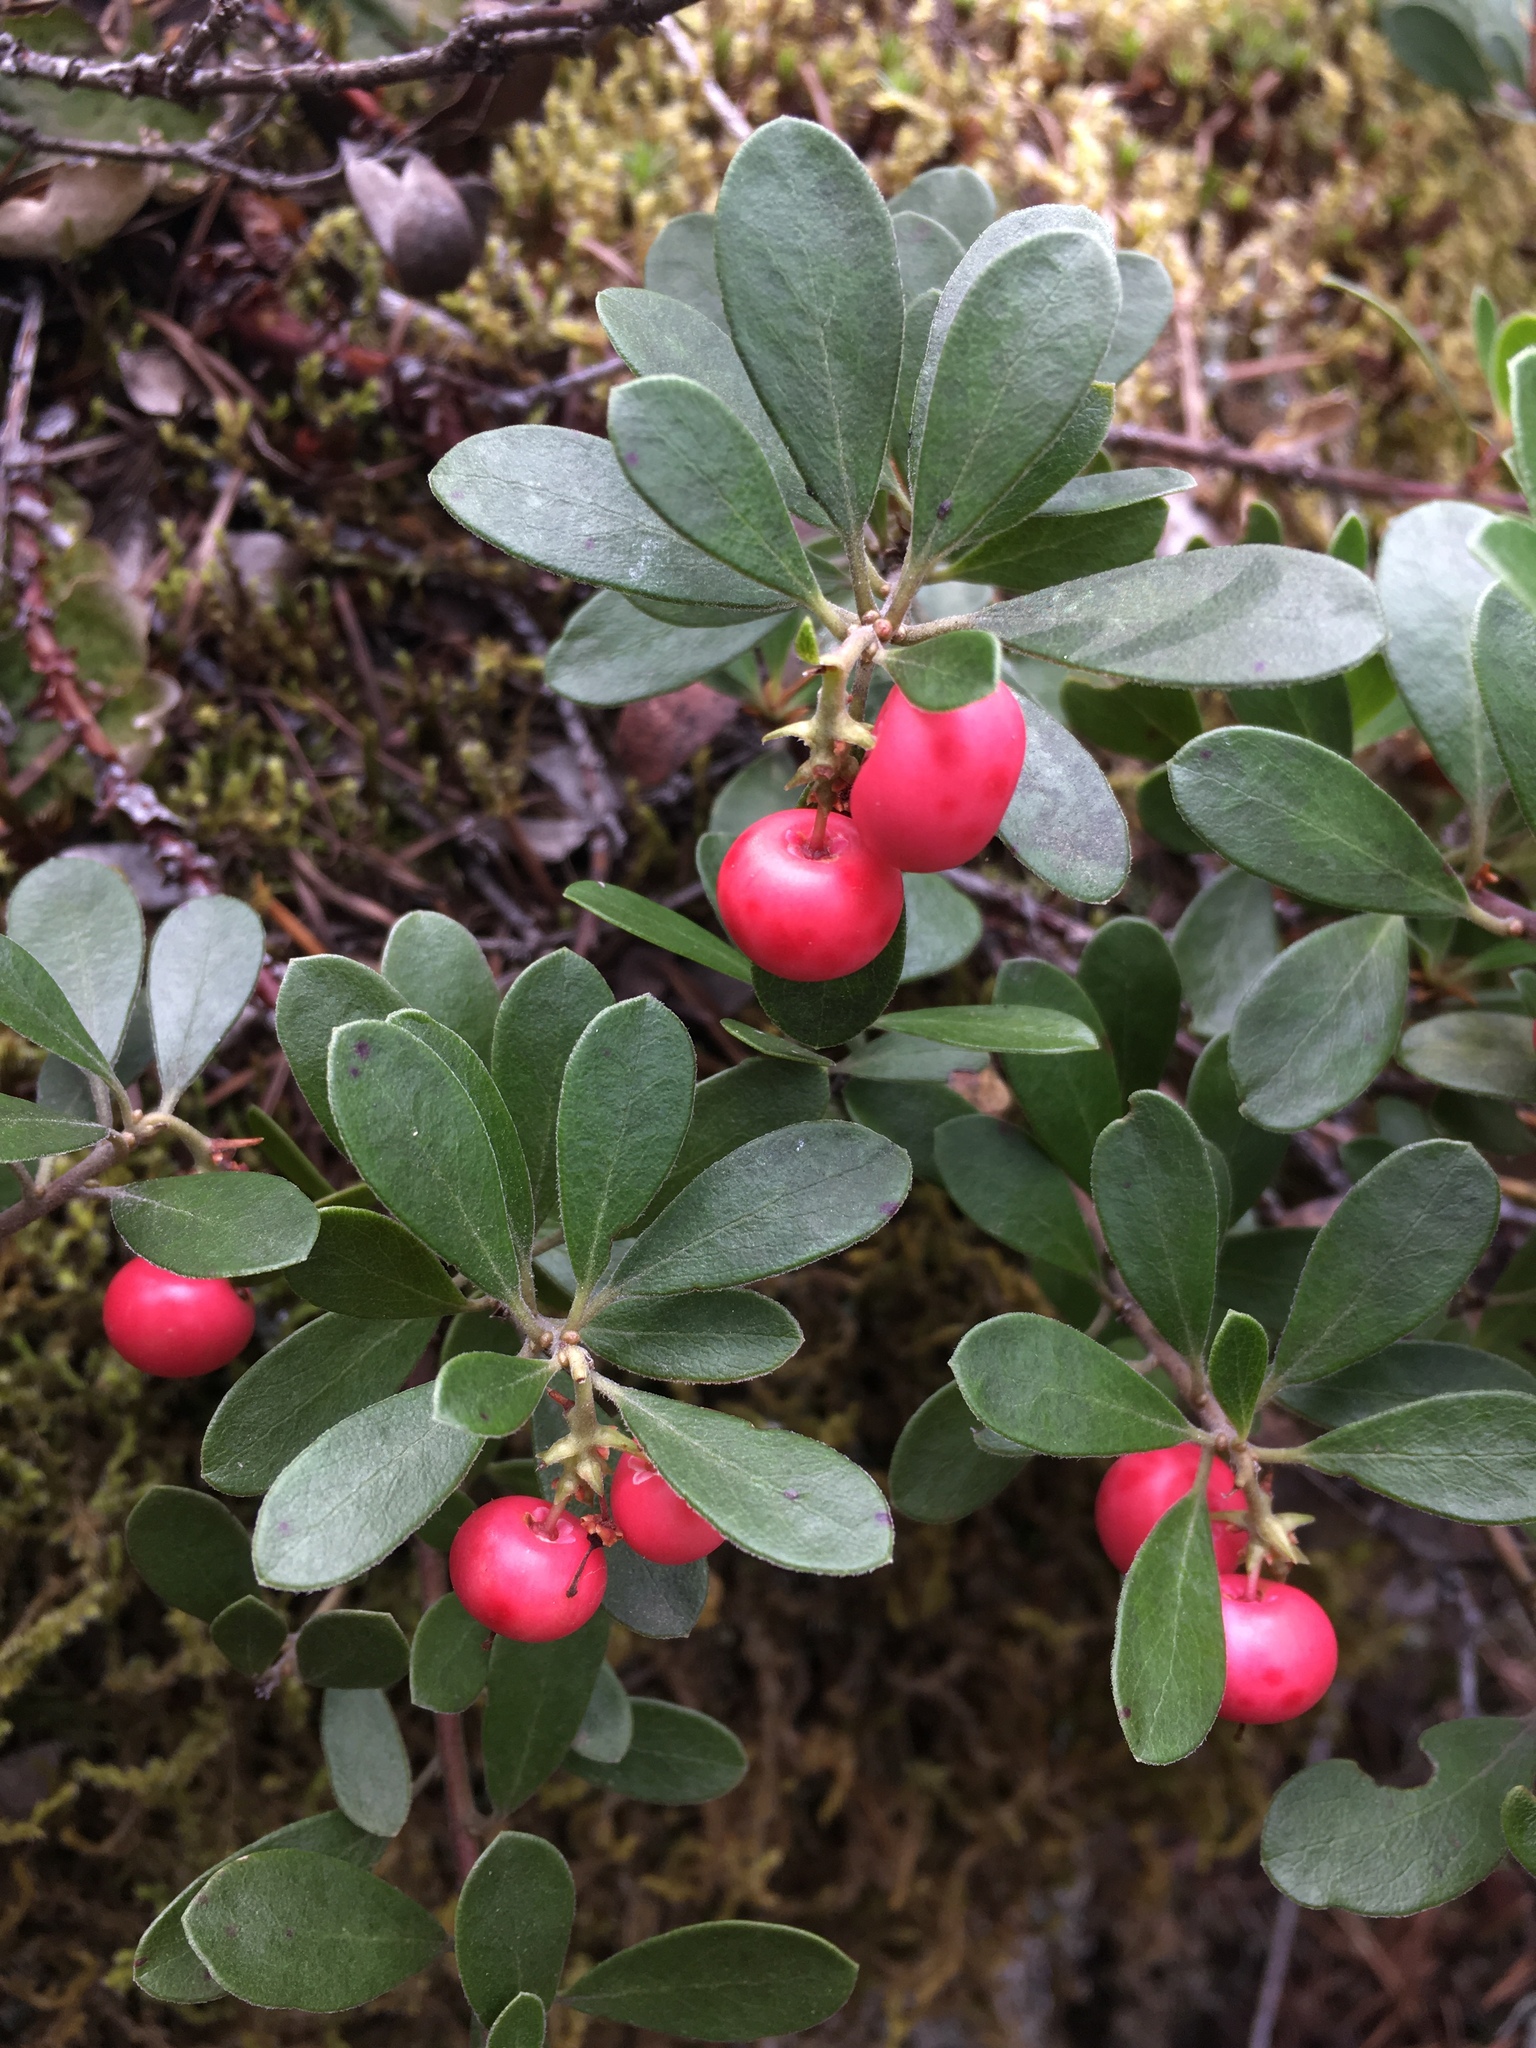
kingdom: Plantae
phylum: Tracheophyta
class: Magnoliopsida
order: Ericales
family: Ericaceae
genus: Arctostaphylos
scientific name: Arctostaphylos uva-ursi
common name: Bearberry
